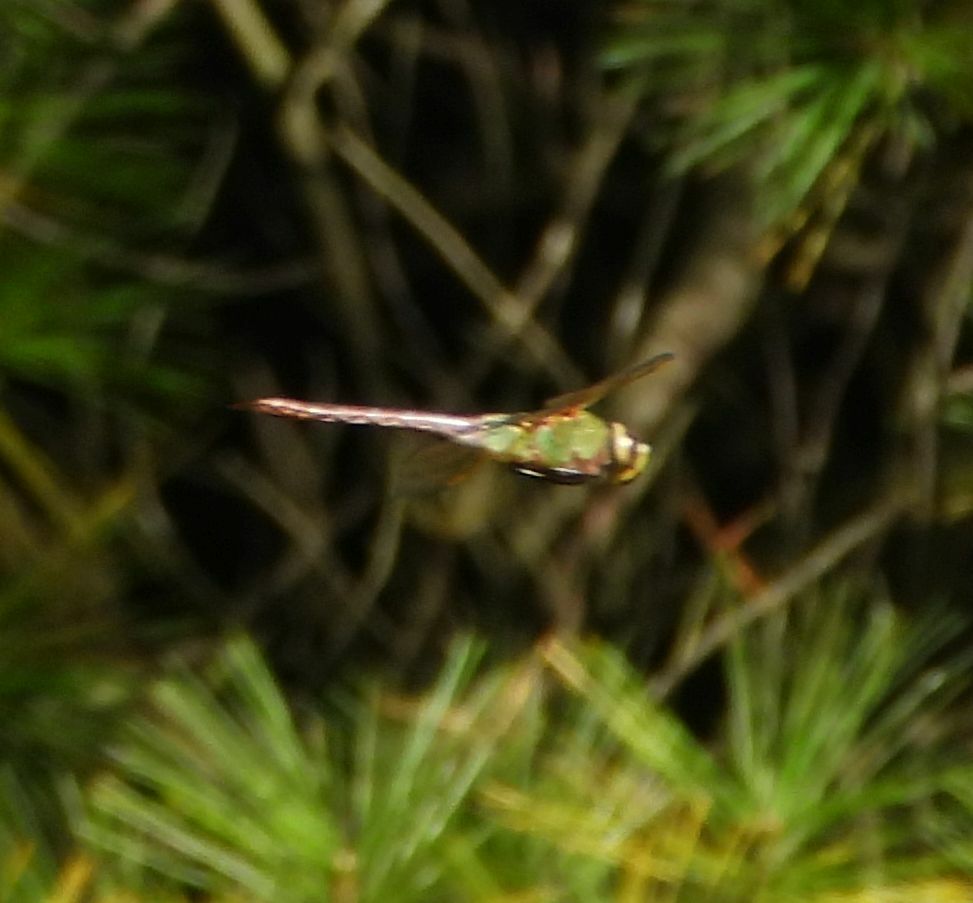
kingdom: Animalia
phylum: Arthropoda
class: Insecta
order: Odonata
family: Aeshnidae
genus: Anax
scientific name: Anax junius
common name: Common green darner
